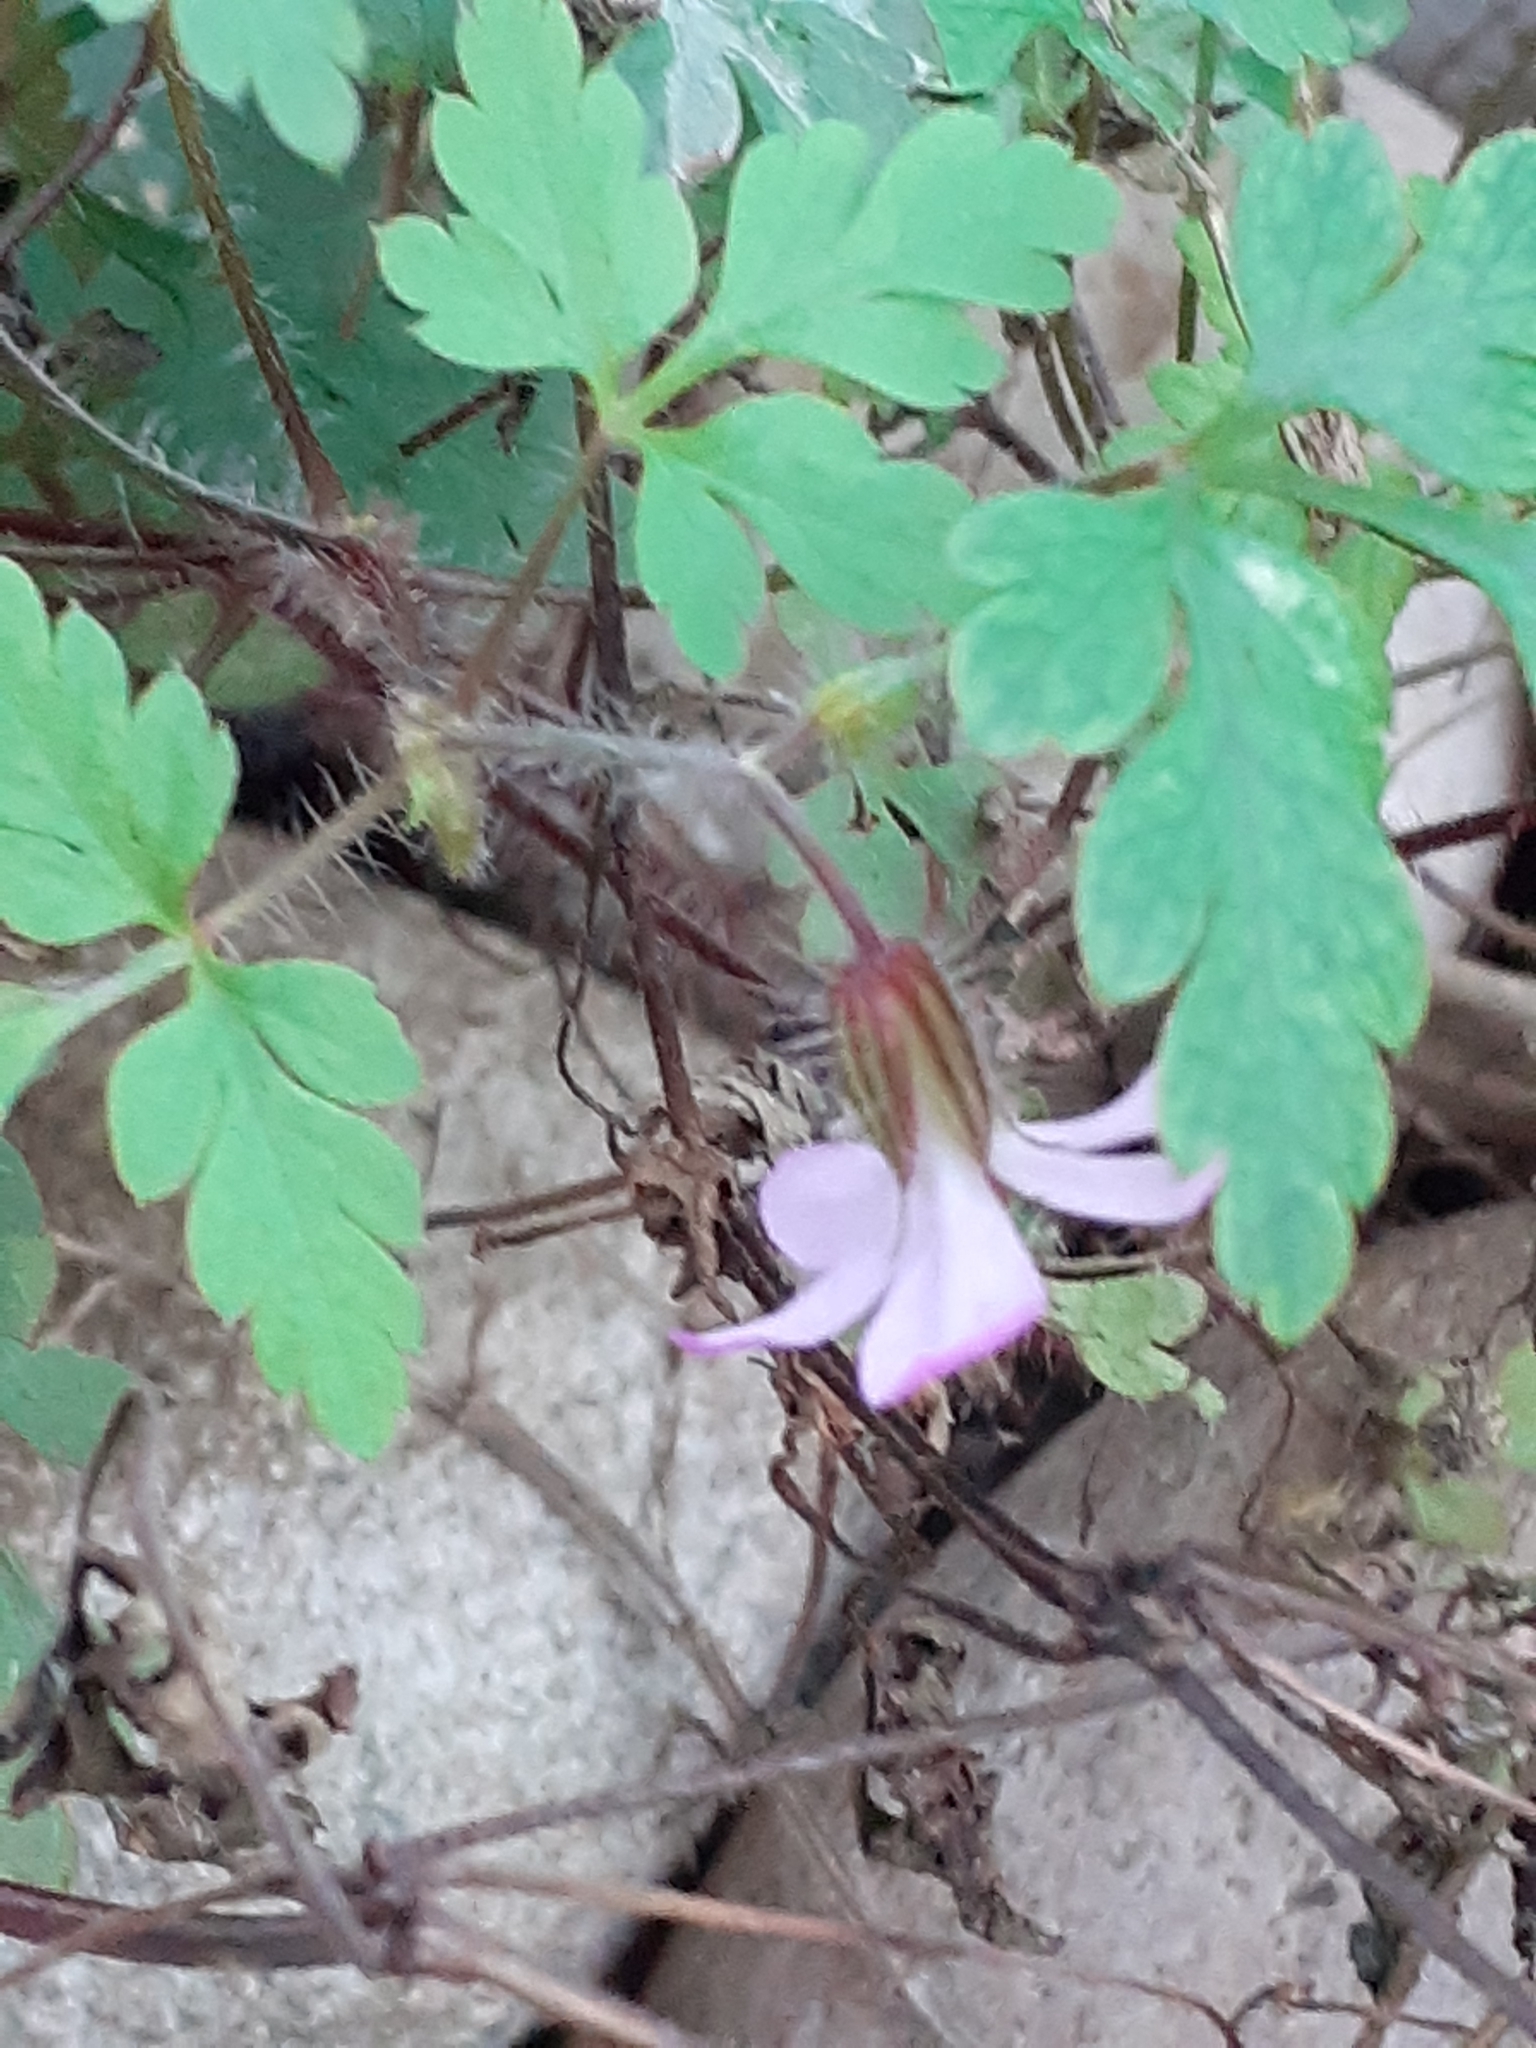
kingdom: Plantae
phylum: Tracheophyta
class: Magnoliopsida
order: Geraniales
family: Geraniaceae
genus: Geranium
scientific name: Geranium robertianum
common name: Herb-robert
